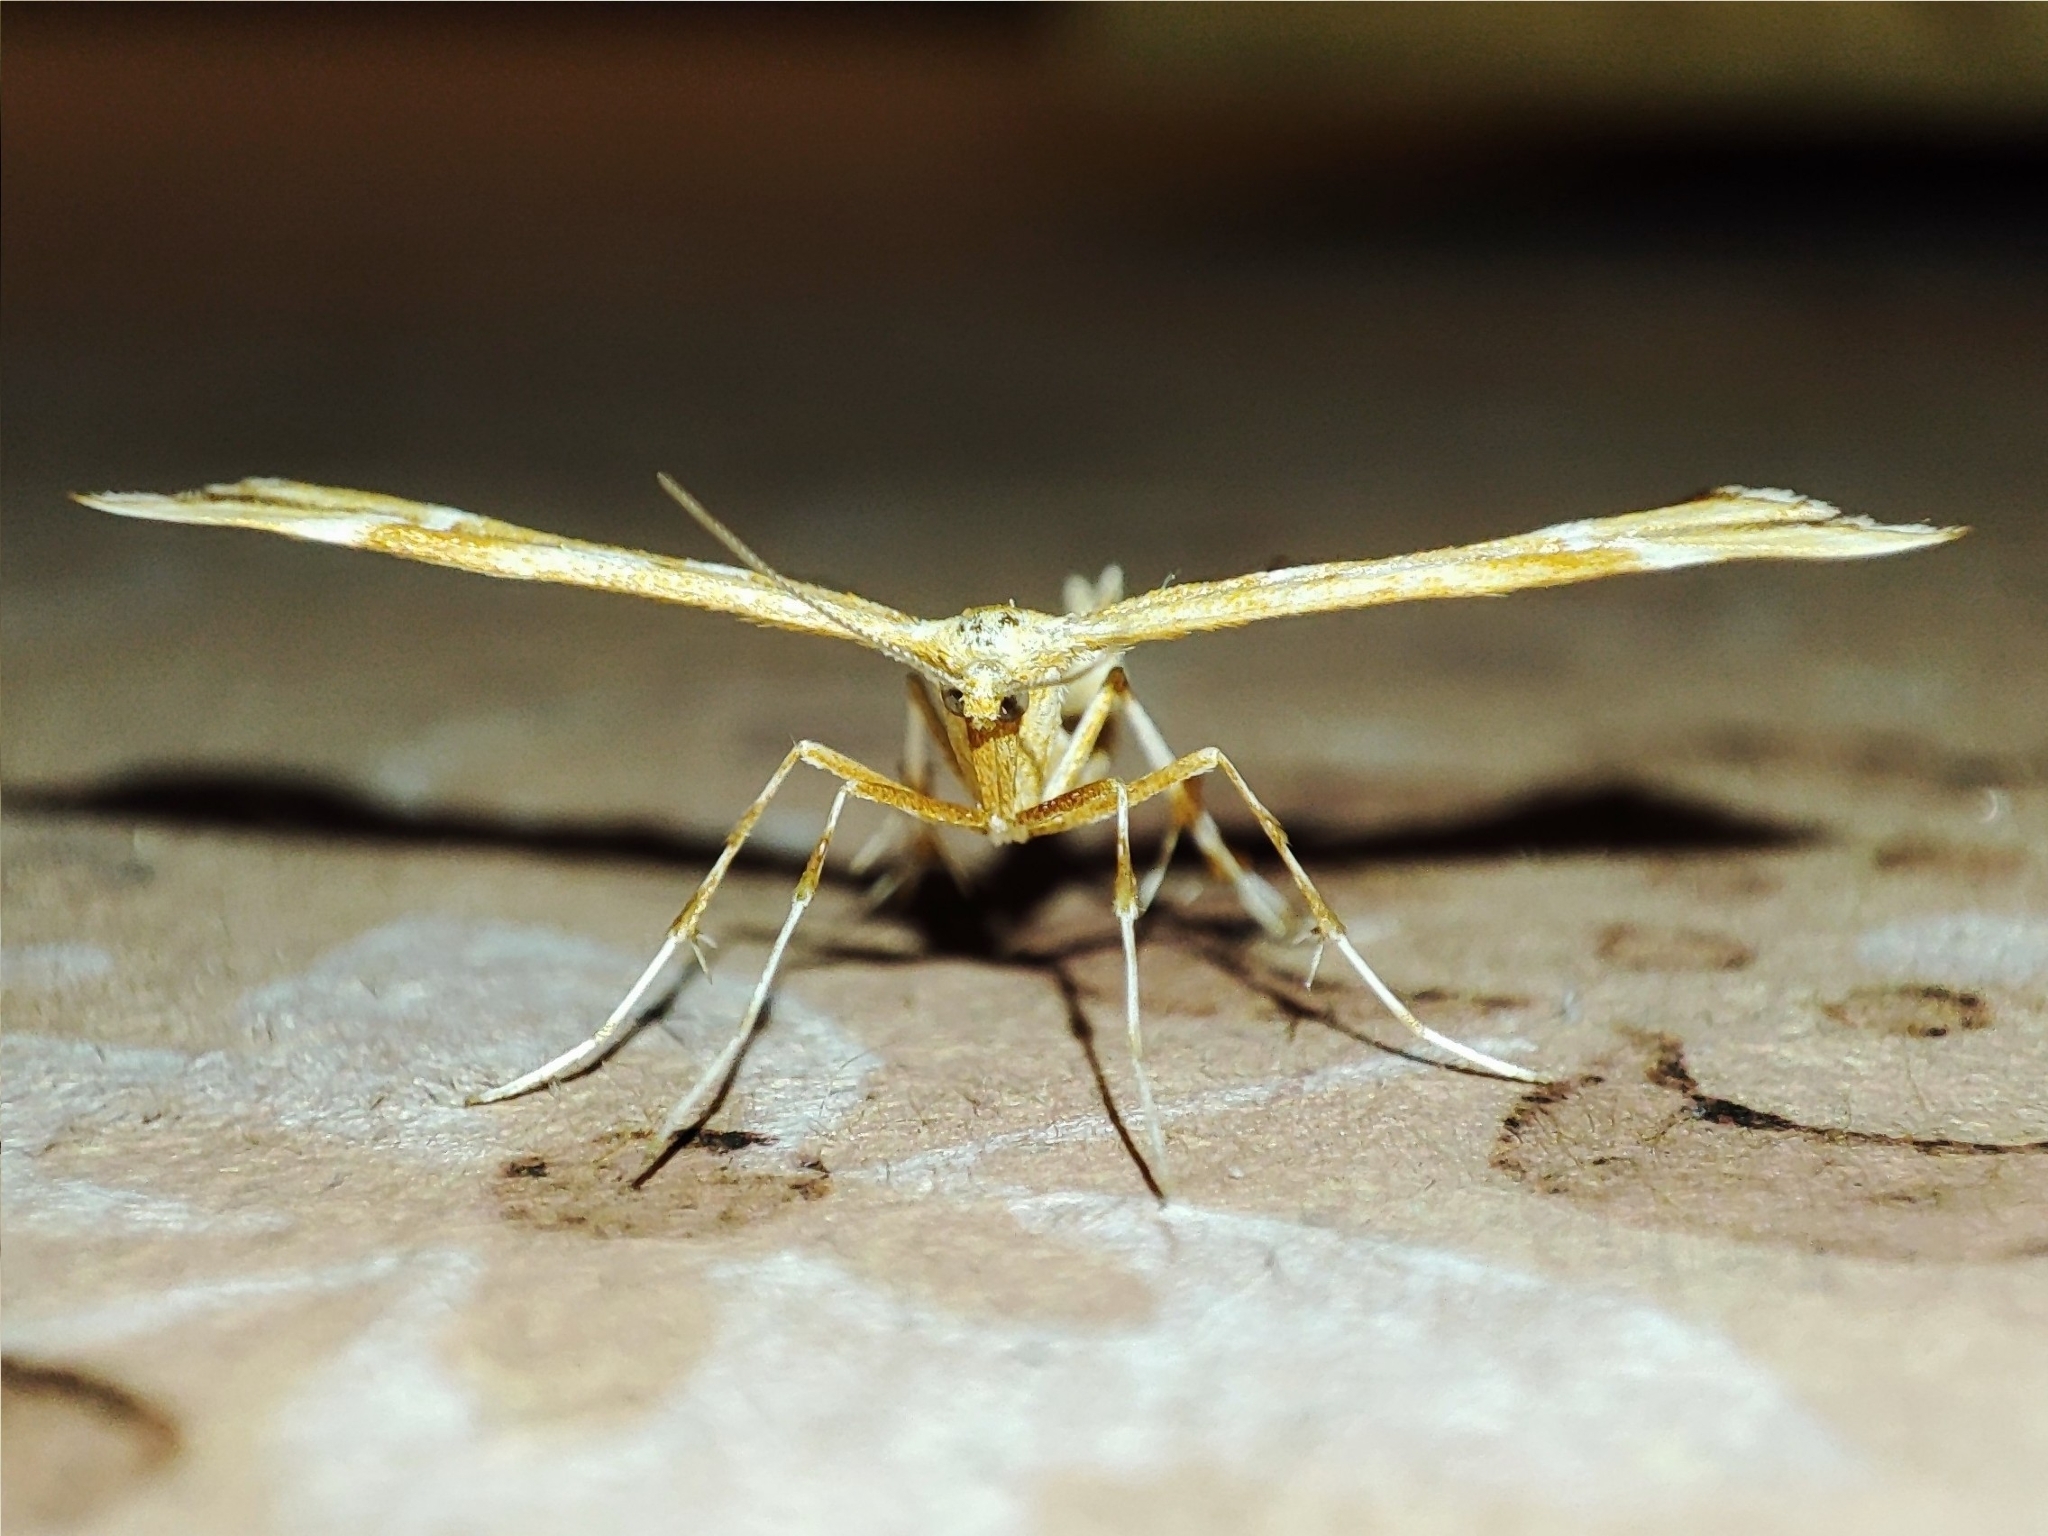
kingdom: Animalia
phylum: Arthropoda
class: Insecta
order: Lepidoptera
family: Pterophoridae
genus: Cnaemidophorus
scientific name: Cnaemidophorus rhododactyla
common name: Rose plume
